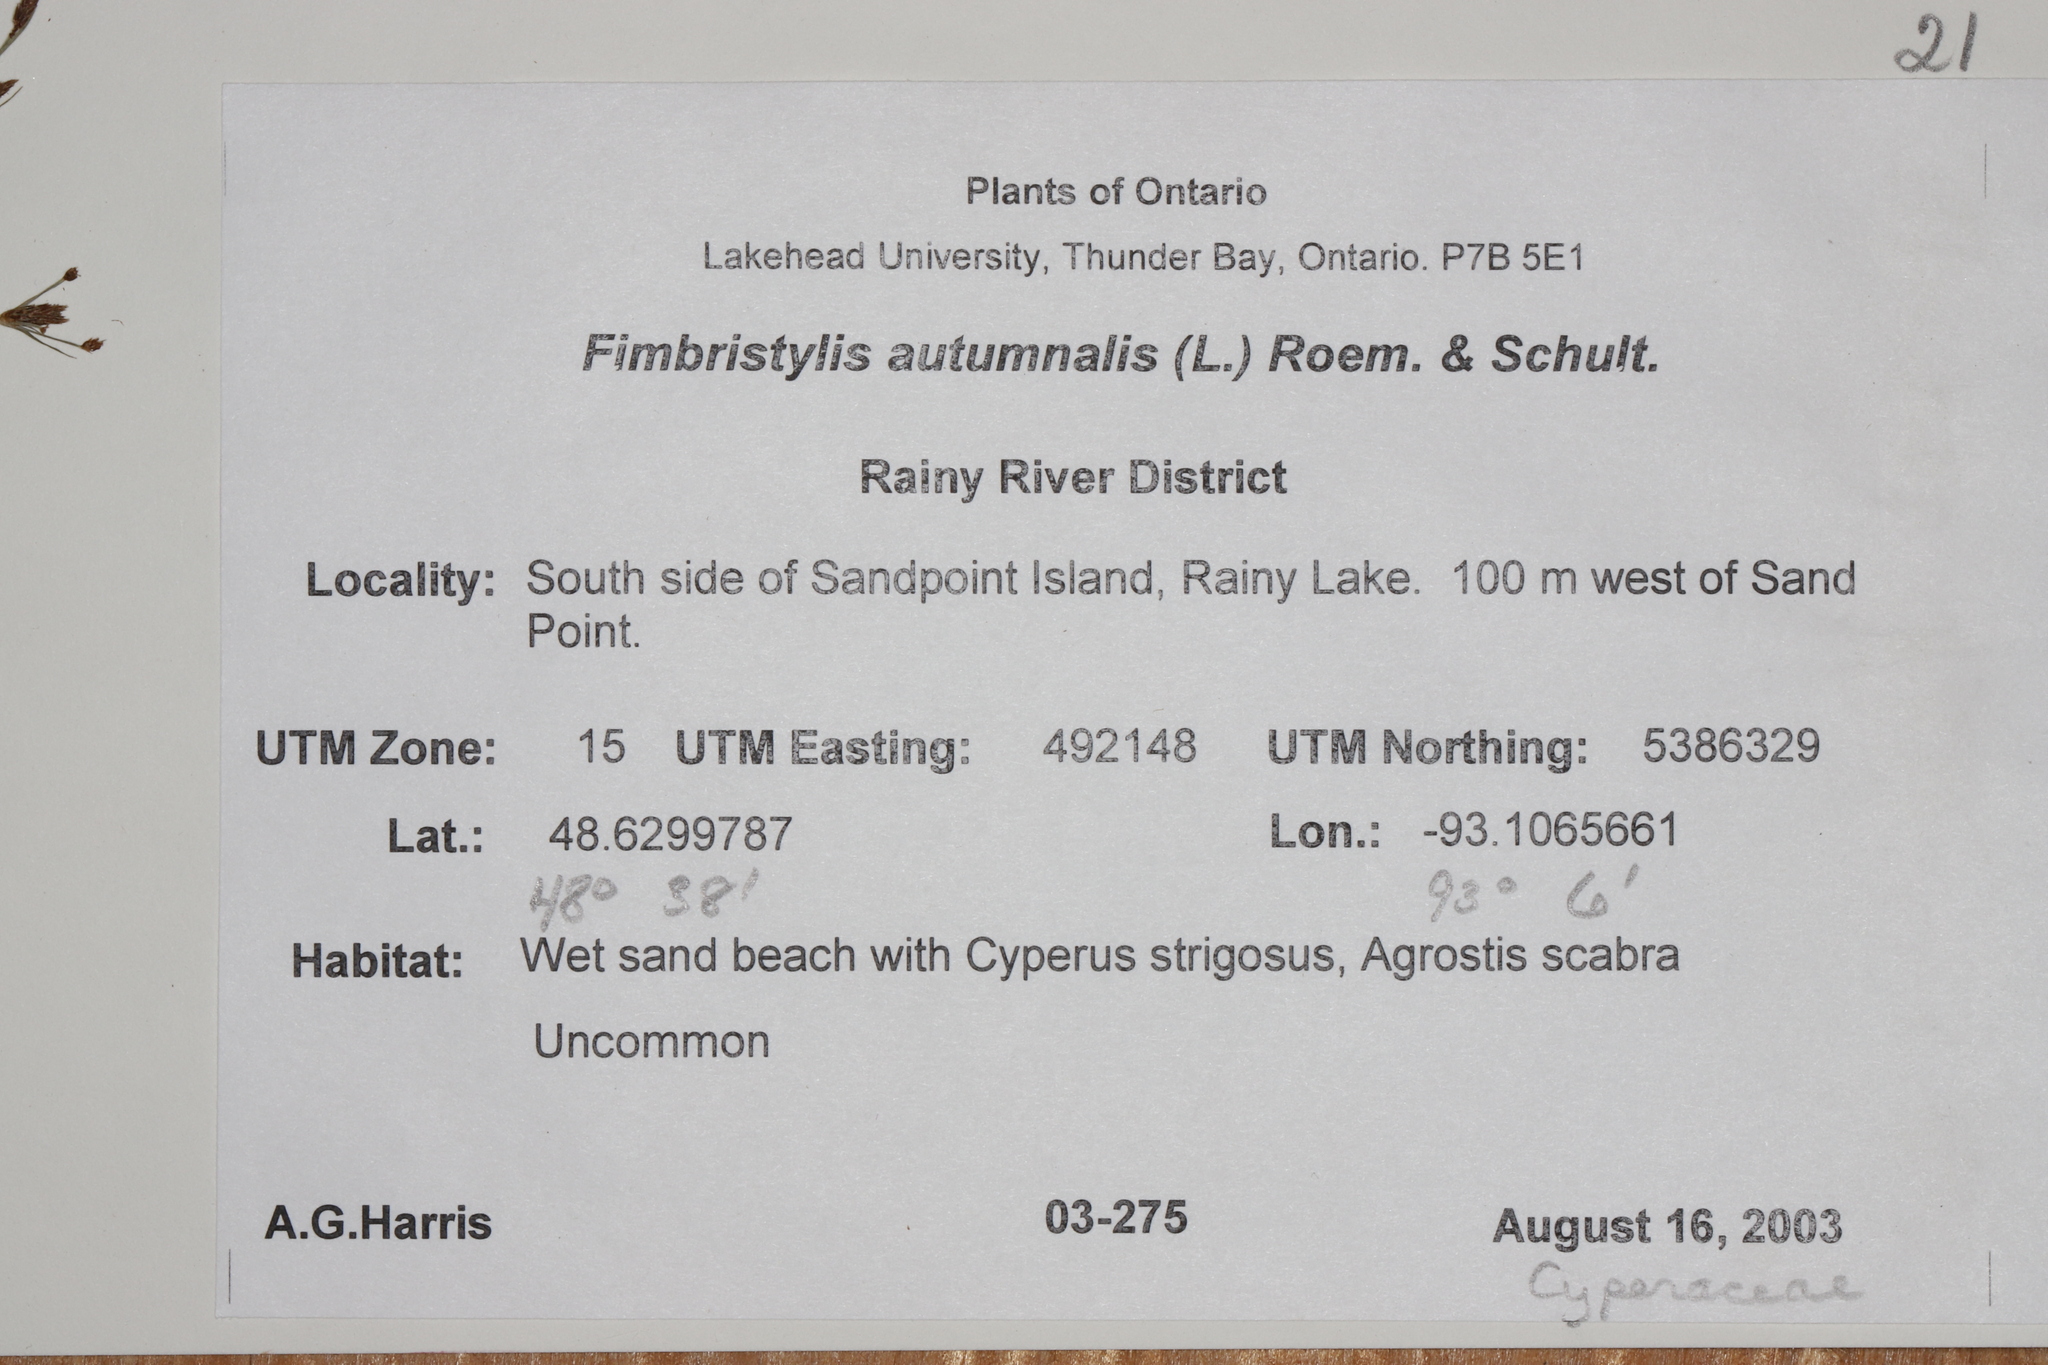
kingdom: Plantae
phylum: Tracheophyta
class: Liliopsida
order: Poales
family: Cyperaceae
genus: Fimbristylis
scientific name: Fimbristylis autumnalis
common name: Slender fimbristylis
